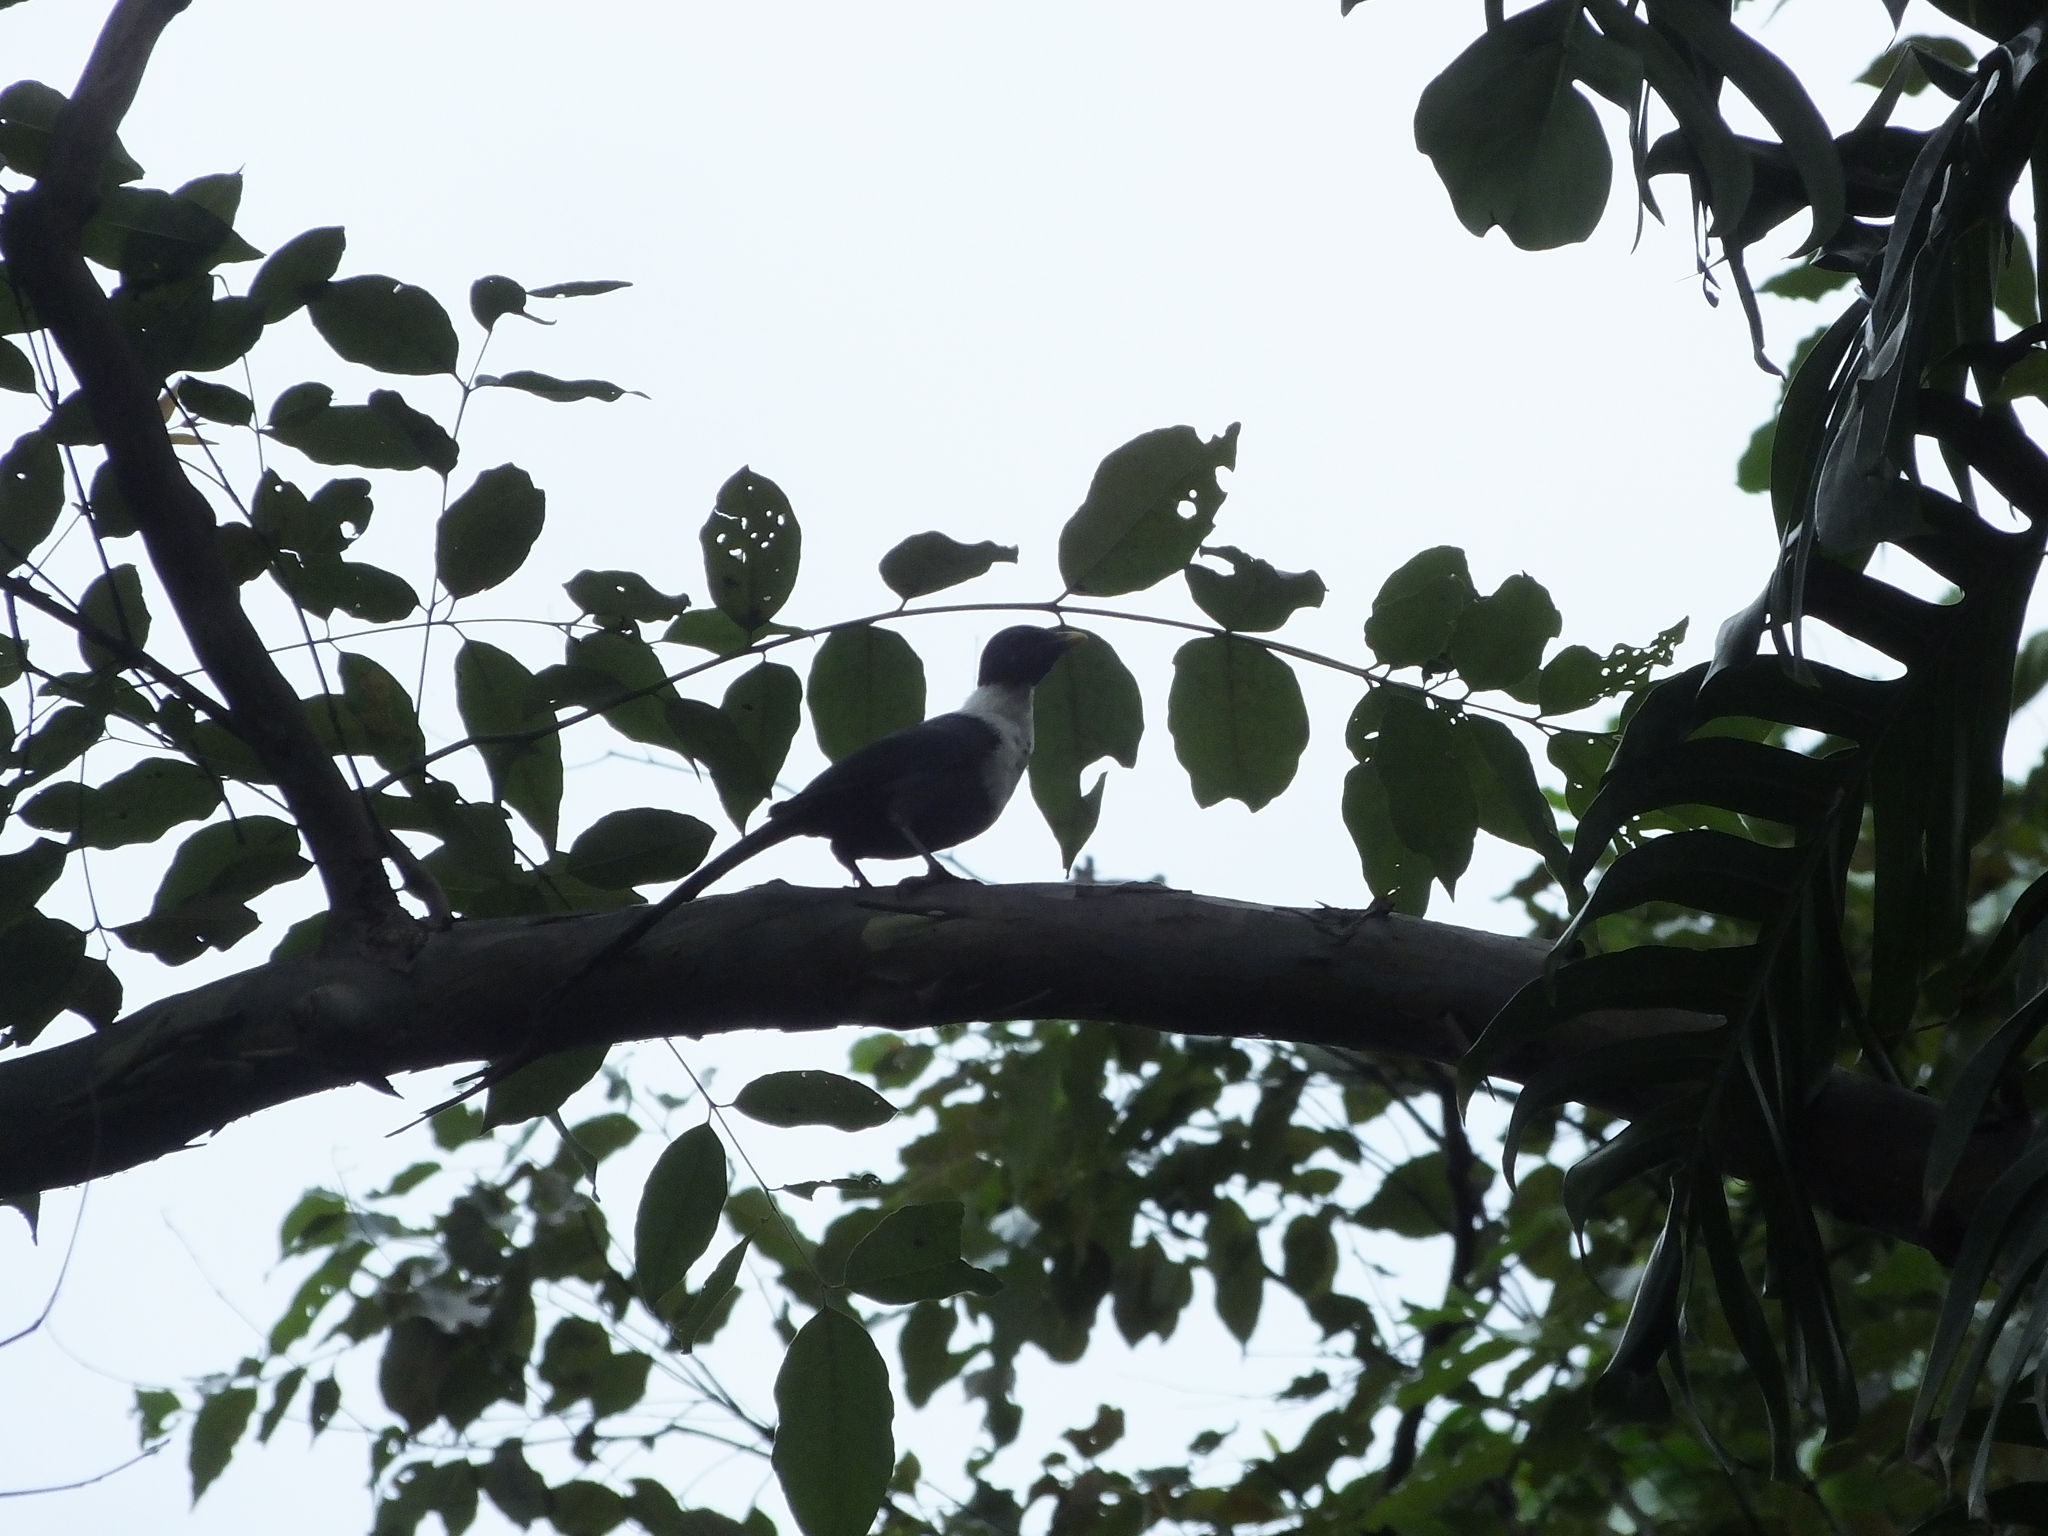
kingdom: Animalia
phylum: Chordata
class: Aves
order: Passeriformes
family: Sturnidae
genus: Streptocitta
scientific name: Streptocitta albicollis
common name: White-necked myna
